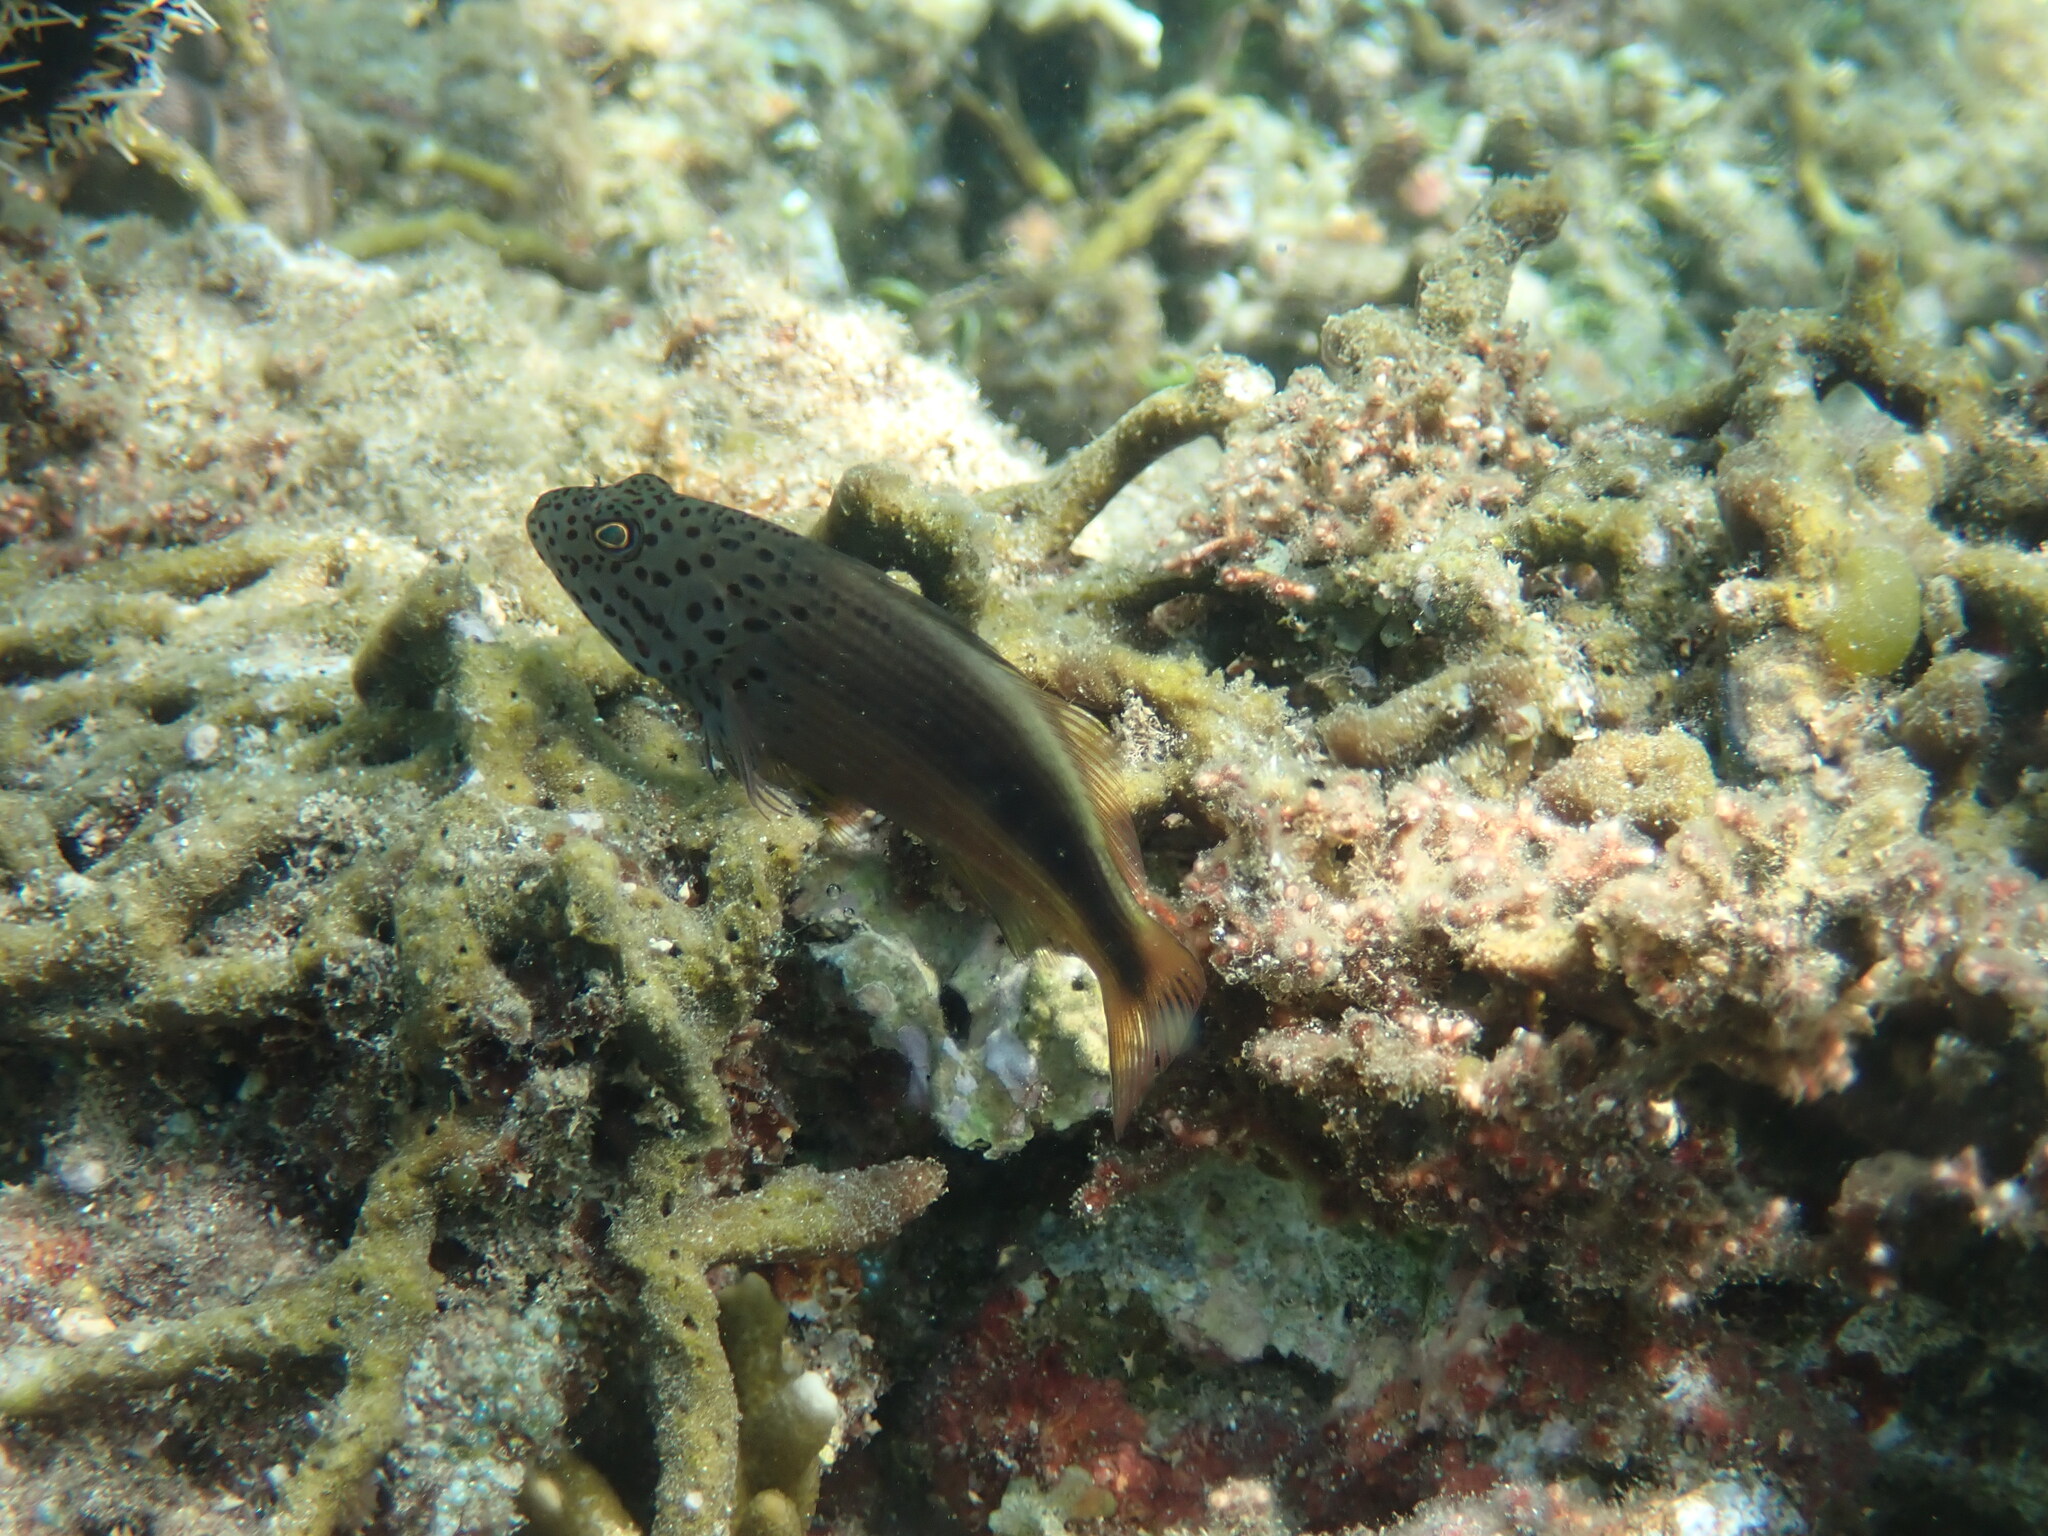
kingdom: Animalia
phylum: Chordata
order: Perciformes
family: Cirrhitidae
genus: Paracirrhites
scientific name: Paracirrhites forsteri
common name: Freckled hawkfish
